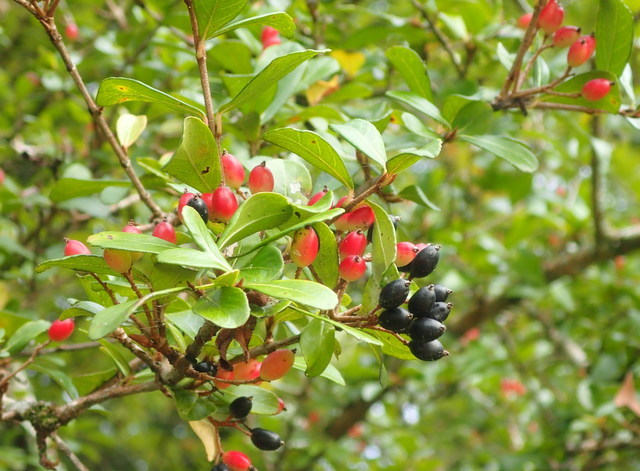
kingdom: Plantae
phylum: Tracheophyta
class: Magnoliopsida
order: Dipsacales
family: Viburnaceae
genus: Viburnum
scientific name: Viburnum obovatum
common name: Walter's viburnum
